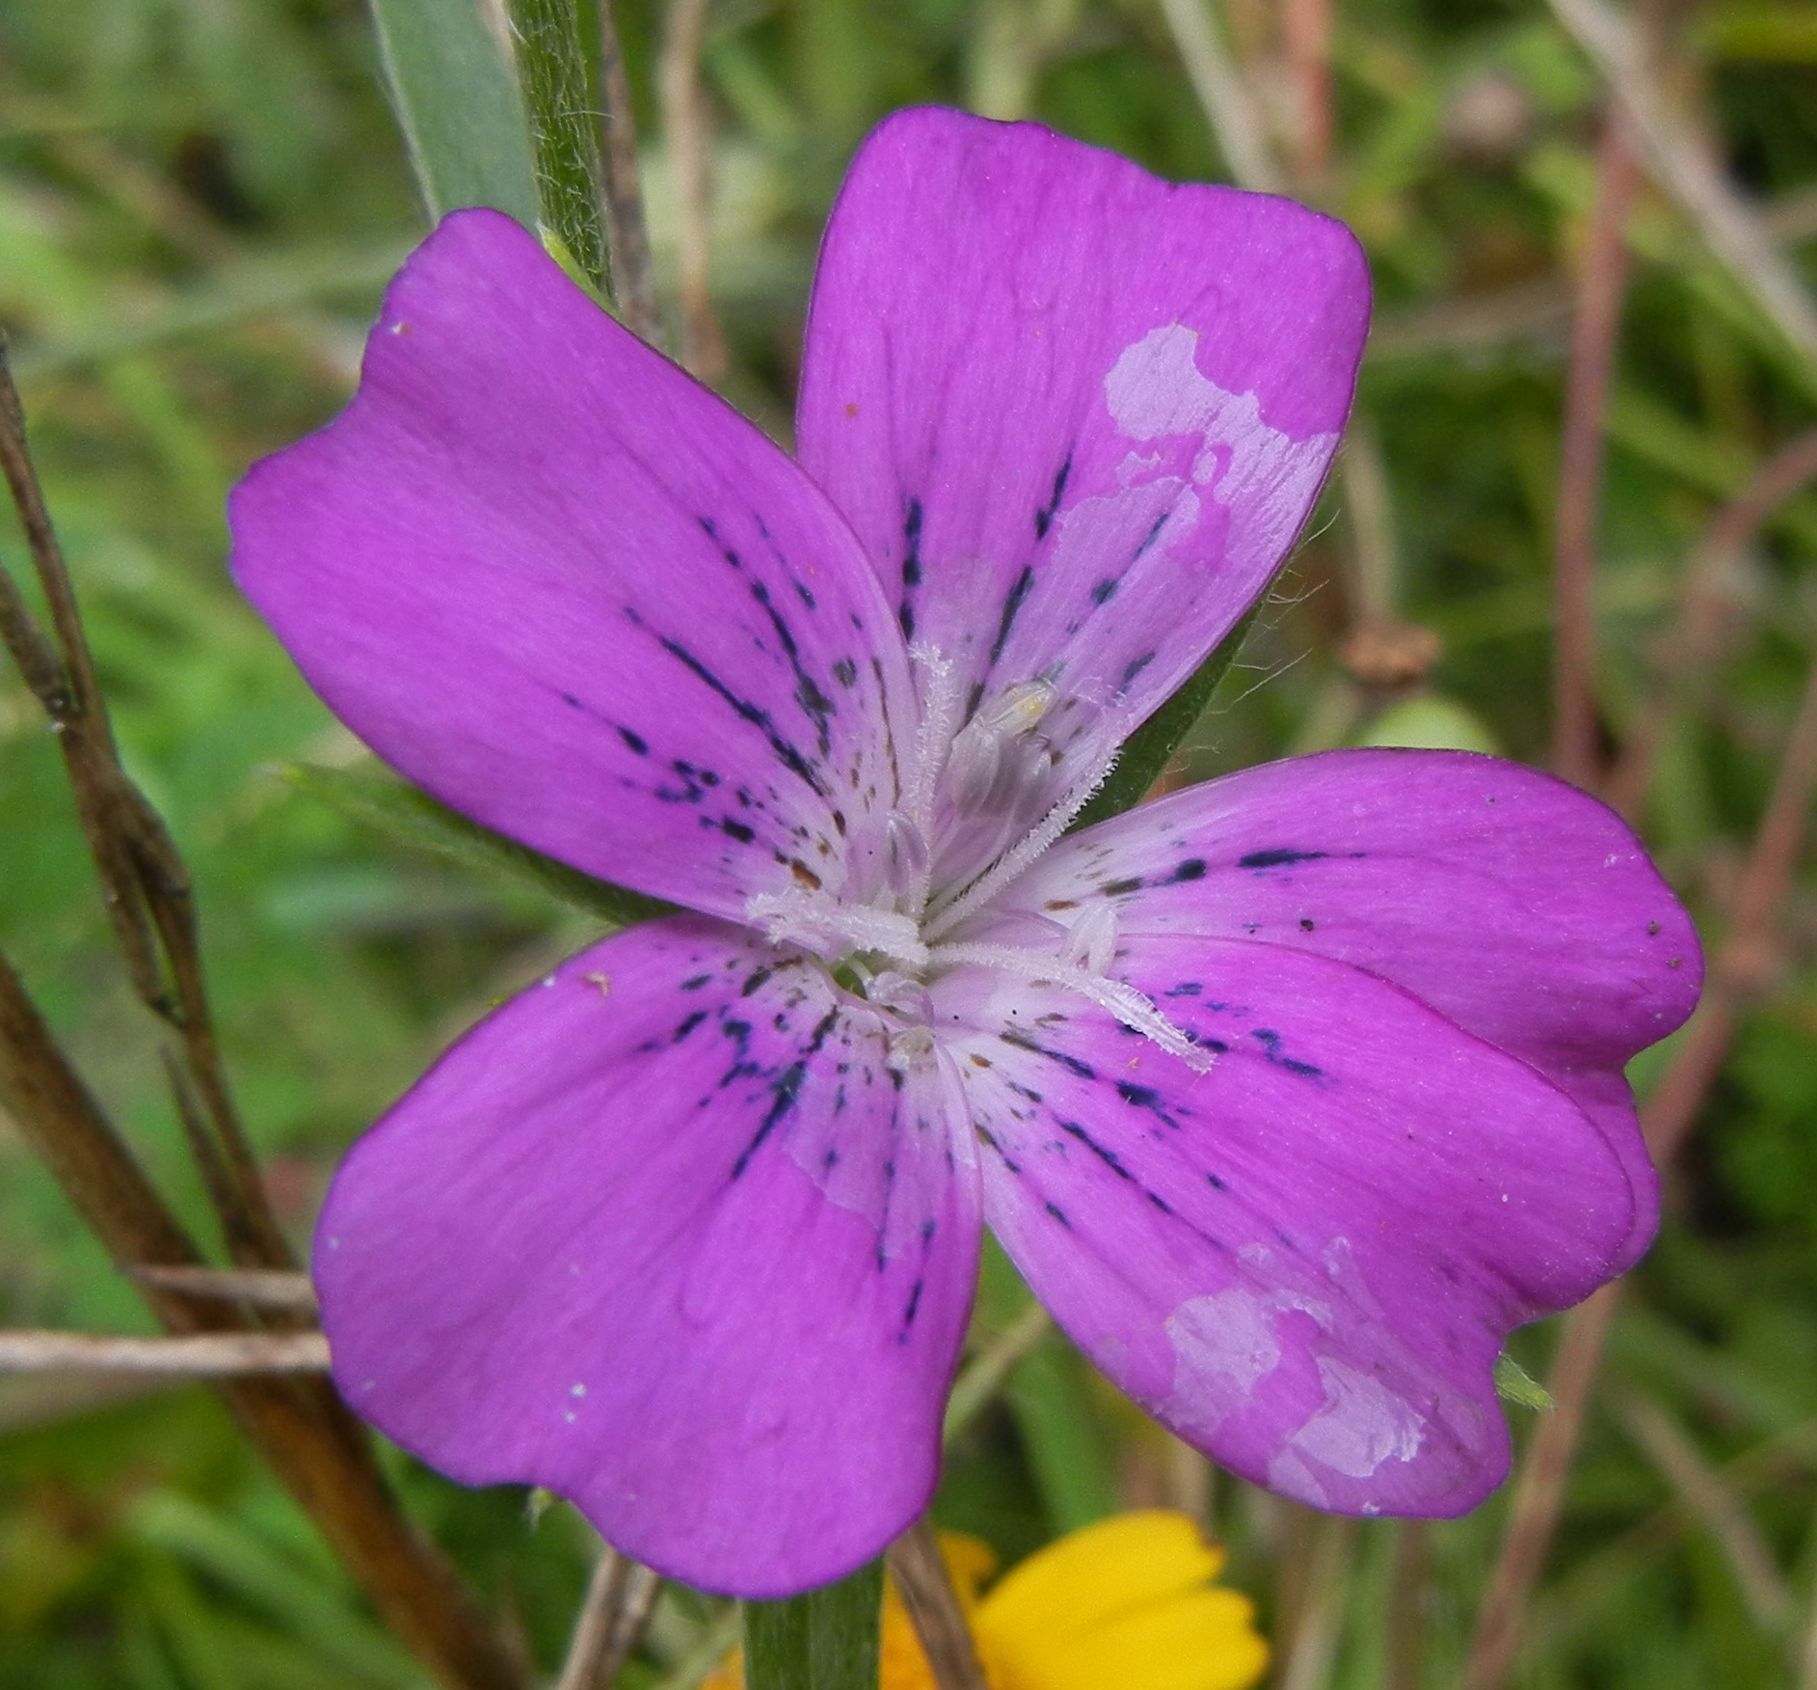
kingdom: Plantae
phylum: Tracheophyta
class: Magnoliopsida
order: Caryophyllales
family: Caryophyllaceae
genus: Agrostemma
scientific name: Agrostemma githago
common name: Common corncockle
